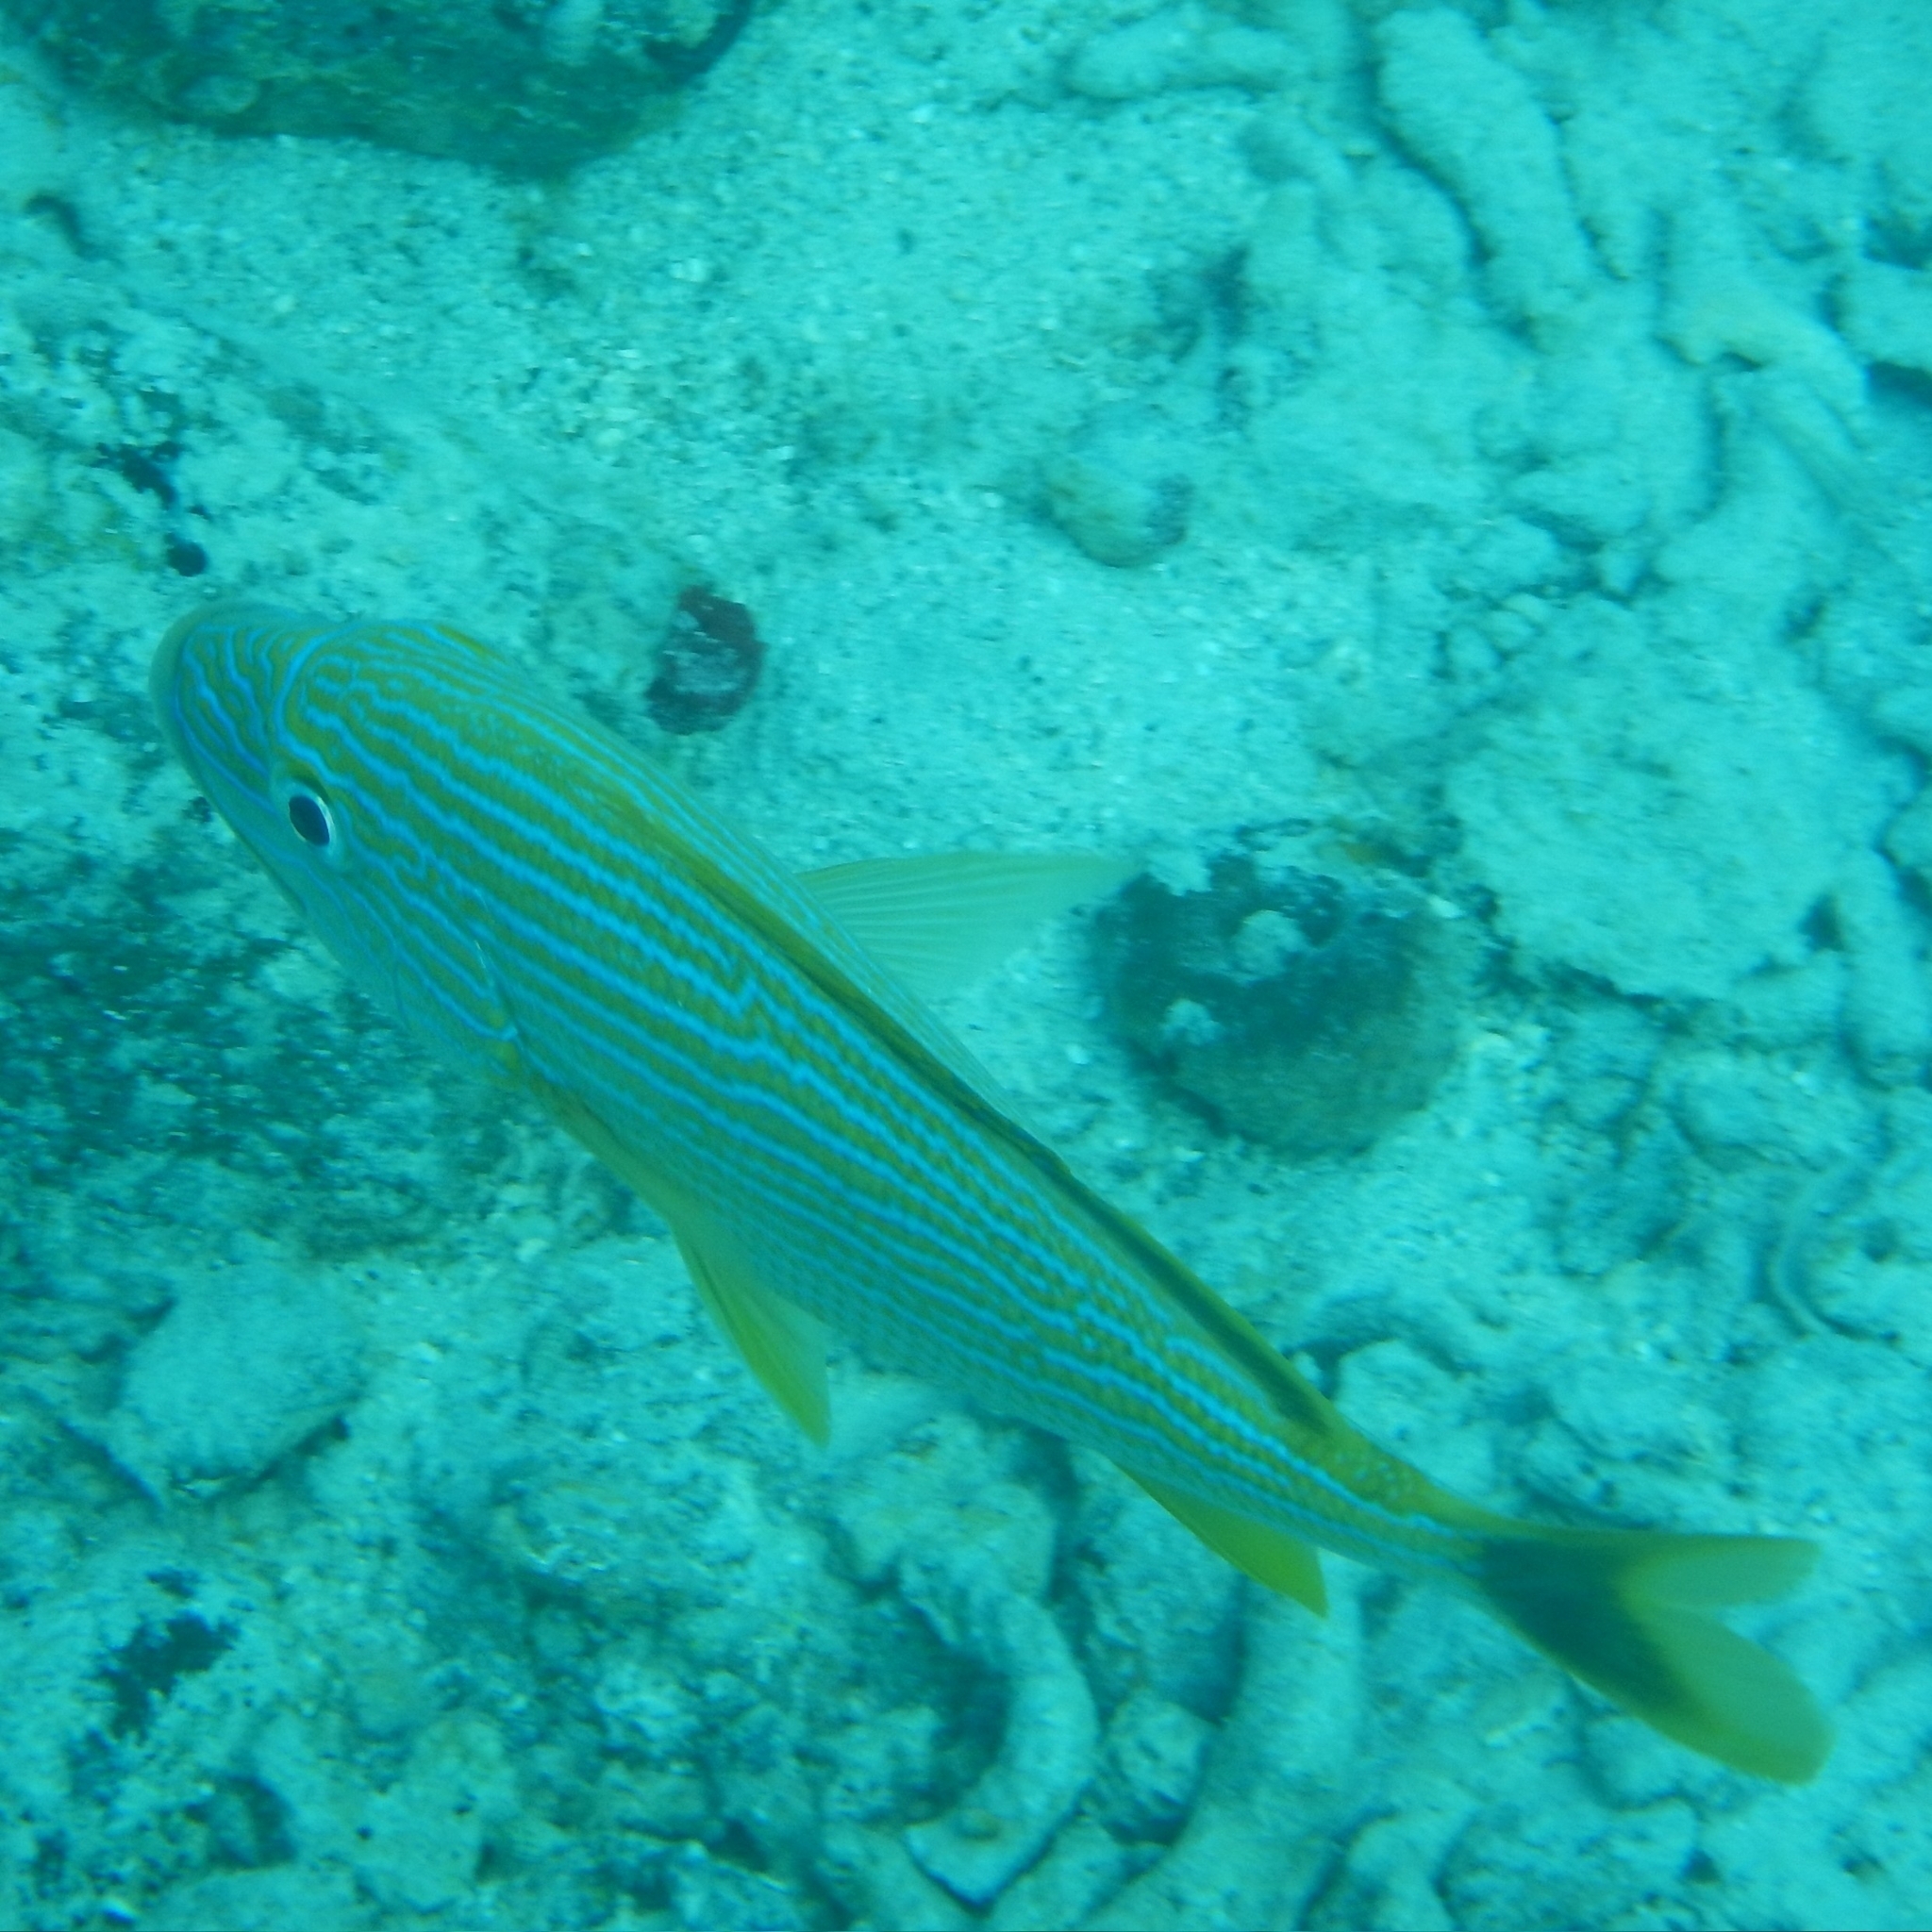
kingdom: Animalia
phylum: Chordata
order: Perciformes
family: Haemulidae
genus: Haemulon
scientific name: Haemulon sciurus
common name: Bluestriped grunt
